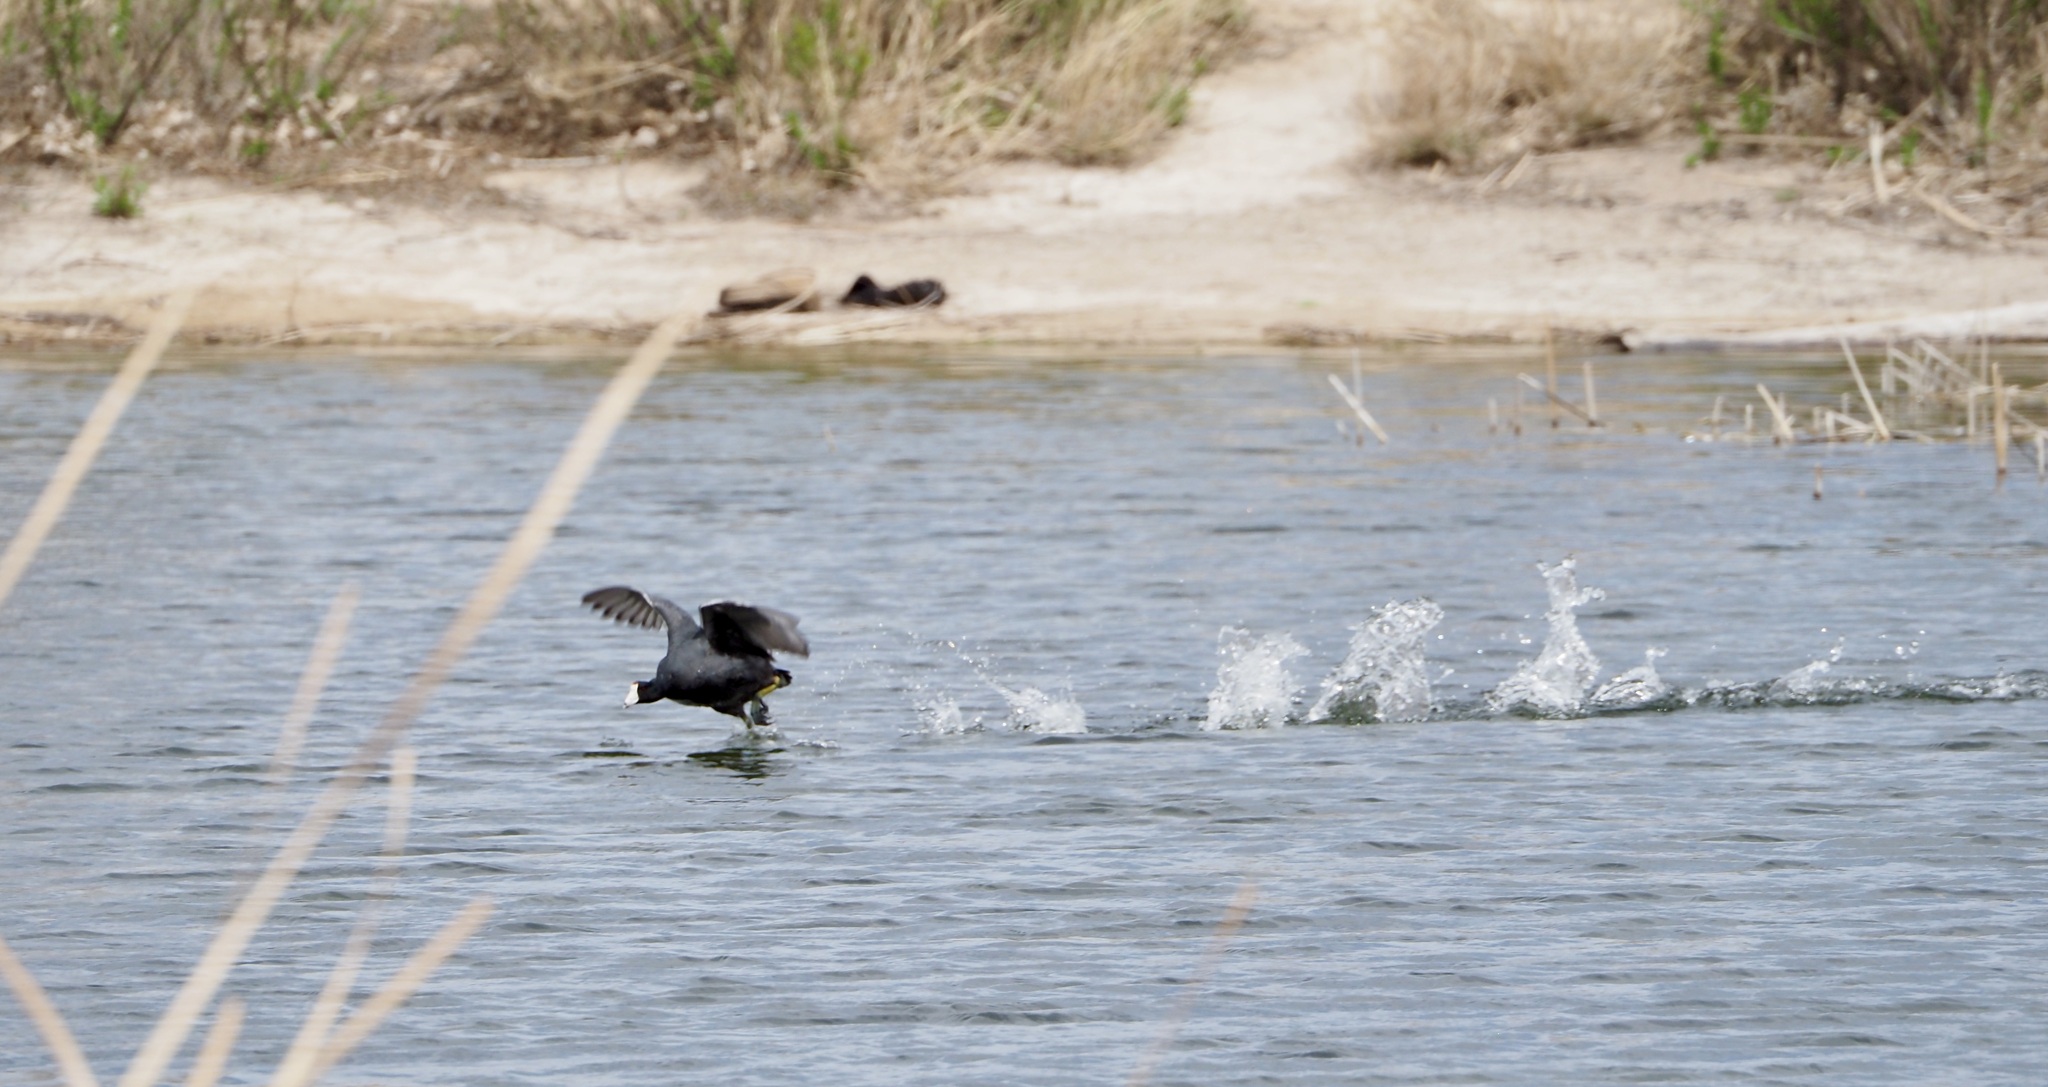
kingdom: Animalia
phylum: Chordata
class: Aves
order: Gruiformes
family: Rallidae
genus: Fulica
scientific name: Fulica americana
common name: American coot
